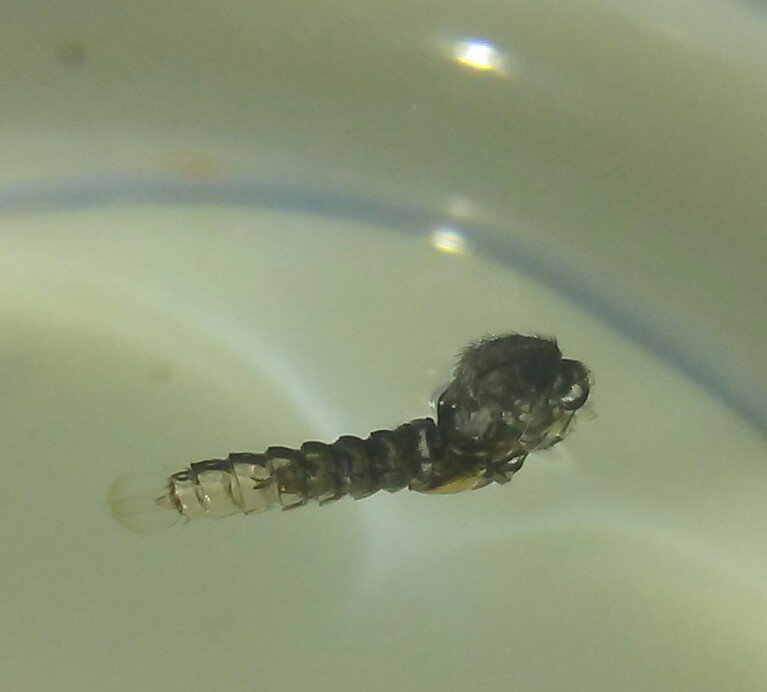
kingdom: Animalia
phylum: Arthropoda
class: Insecta
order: Diptera
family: Culicidae
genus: Aedes
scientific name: Aedes vexans
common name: Inland floodwater mosquito
